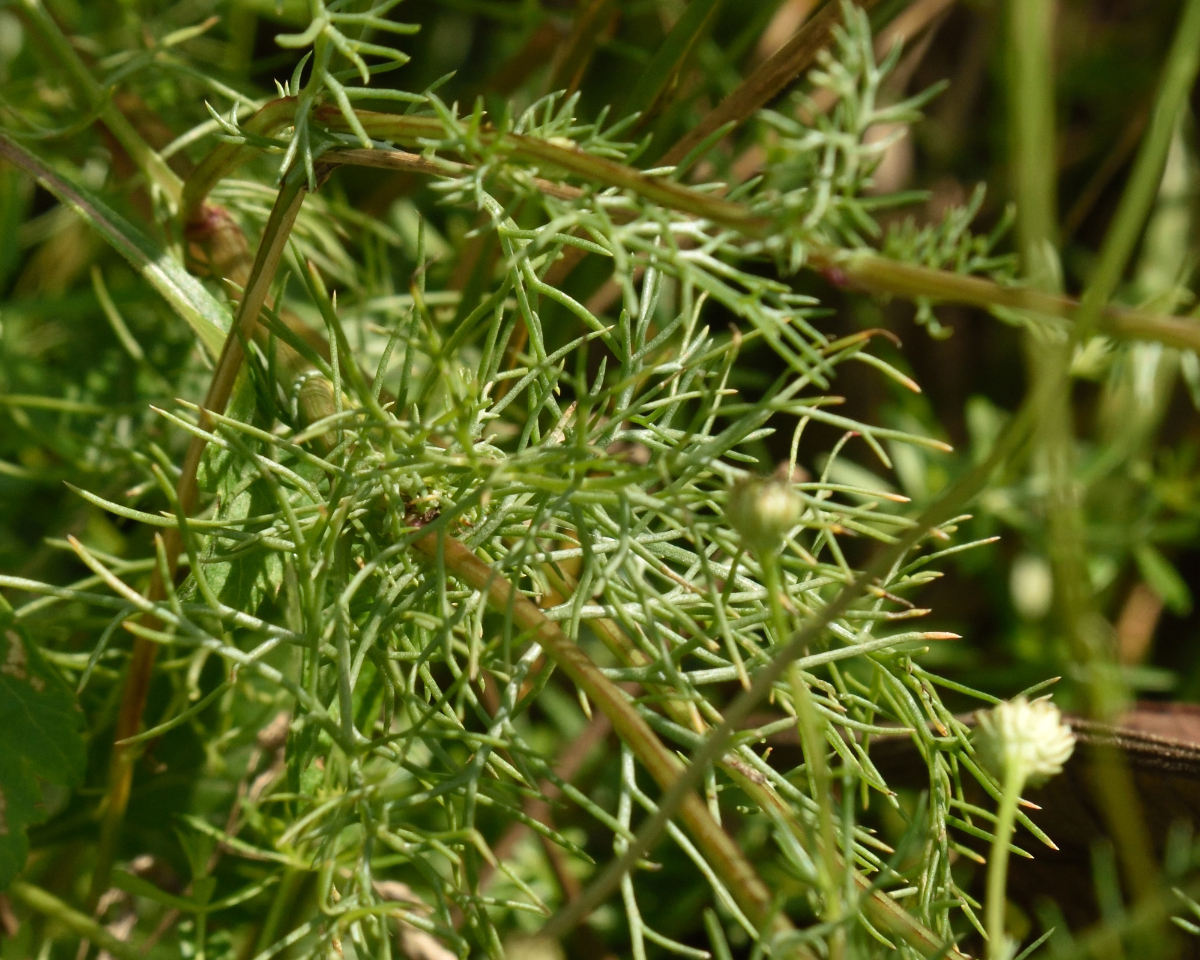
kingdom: Plantae
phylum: Tracheophyta
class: Magnoliopsida
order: Asterales
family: Asteraceae
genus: Tripleurospermum
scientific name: Tripleurospermum inodorum
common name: Scentless mayweed
